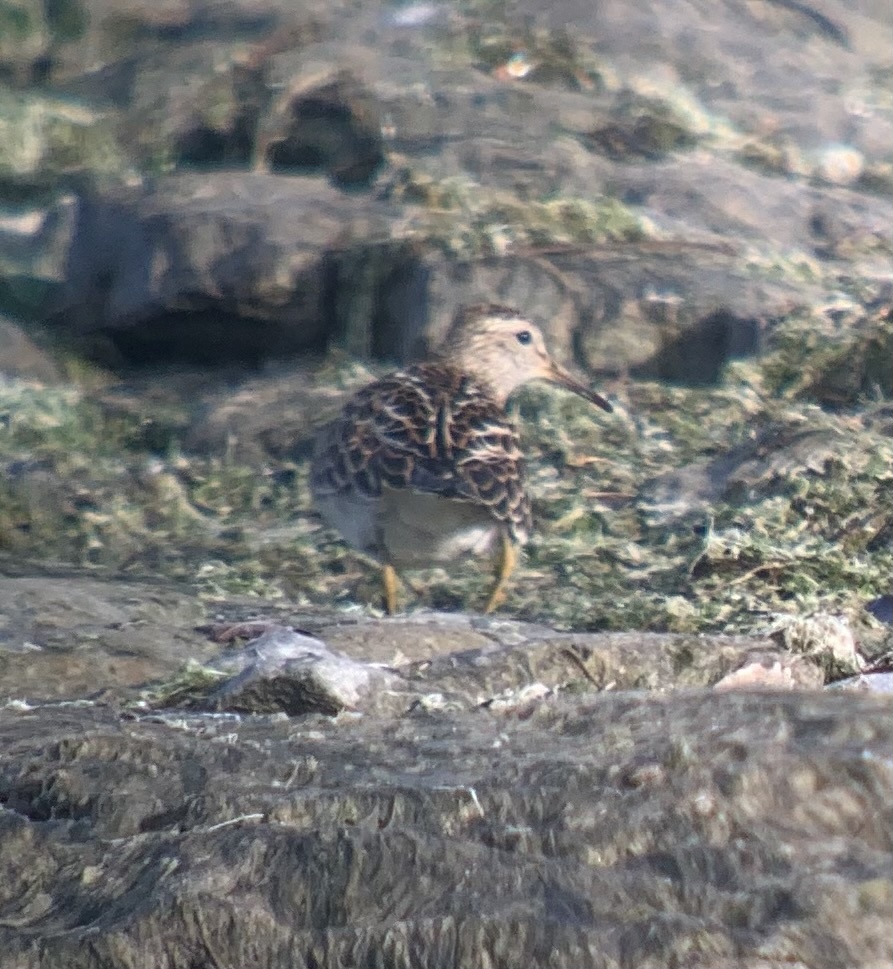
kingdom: Animalia
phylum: Chordata
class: Aves
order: Charadriiformes
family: Scolopacidae
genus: Calidris
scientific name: Calidris melanotos
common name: Pectoral sandpiper
